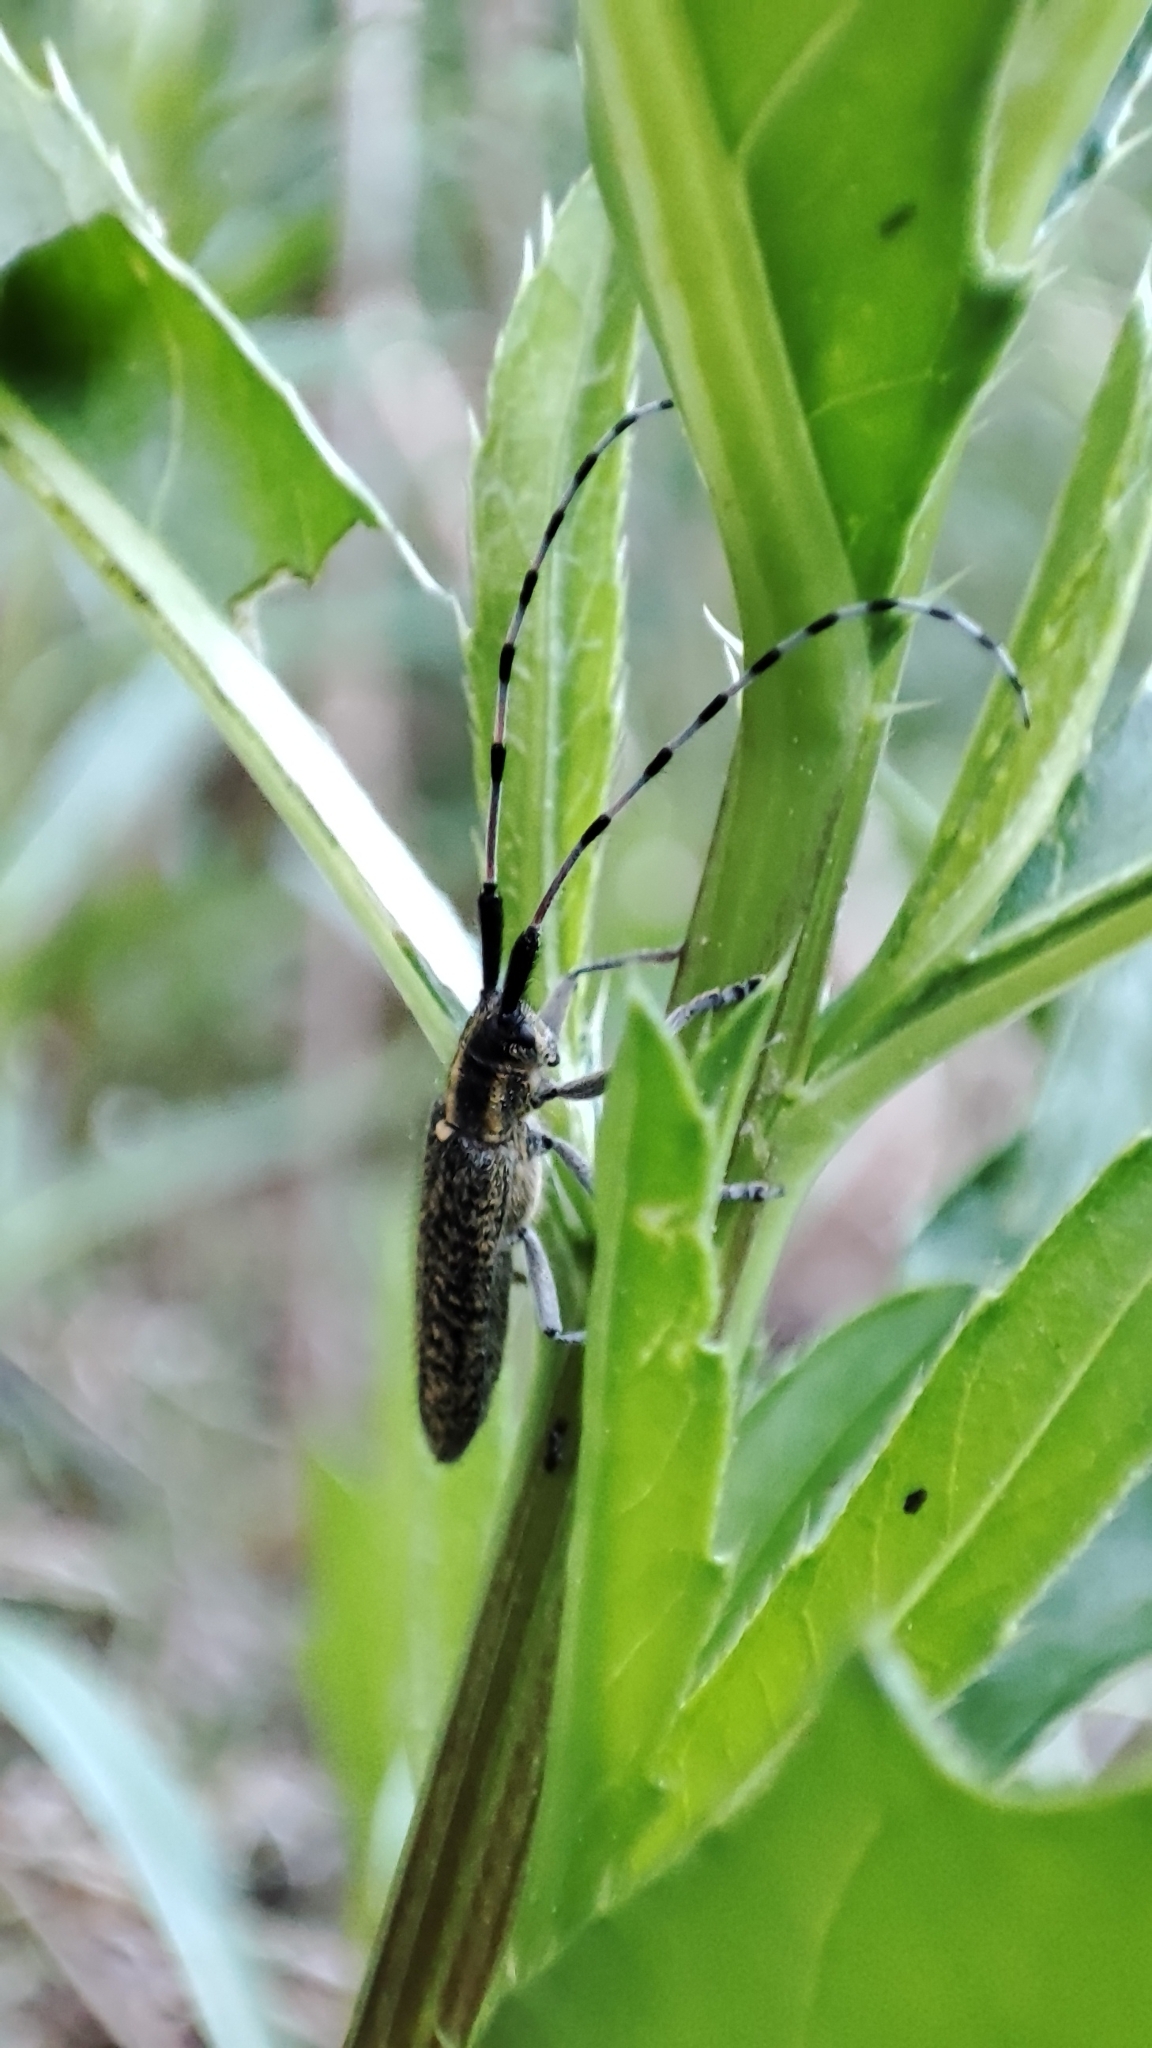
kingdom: Animalia
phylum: Arthropoda
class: Insecta
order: Coleoptera
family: Cerambycidae
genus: Agapanthia
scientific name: Agapanthia villosoviridescens
